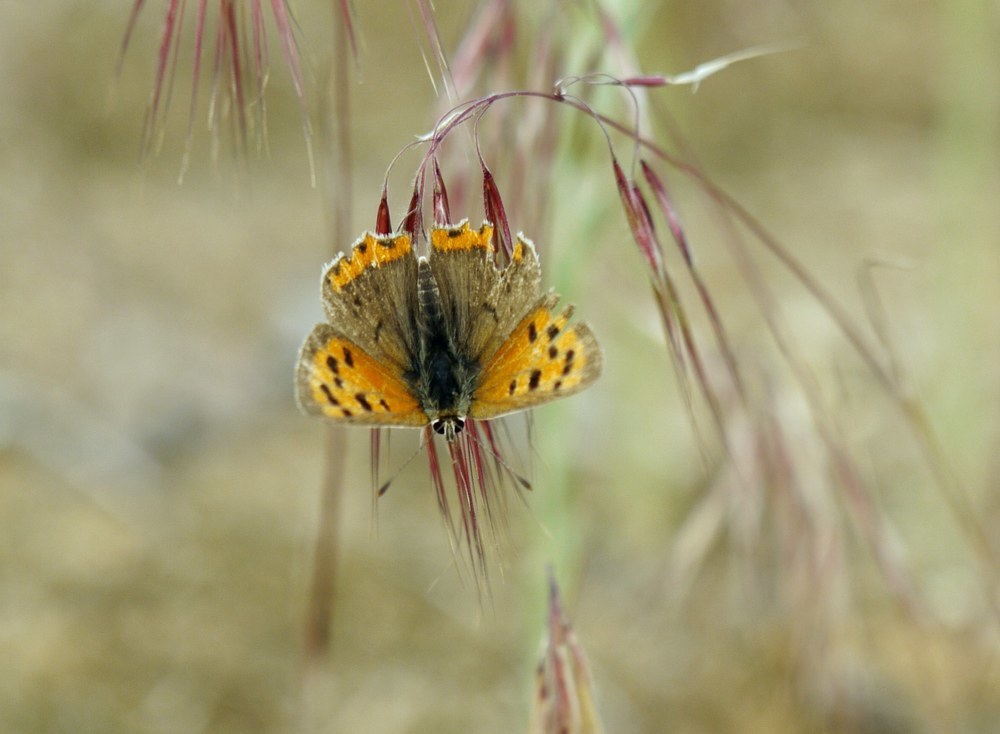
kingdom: Animalia
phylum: Arthropoda
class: Insecta
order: Lepidoptera
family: Lycaenidae
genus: Lycaena
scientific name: Lycaena phlaeas
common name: Small copper
